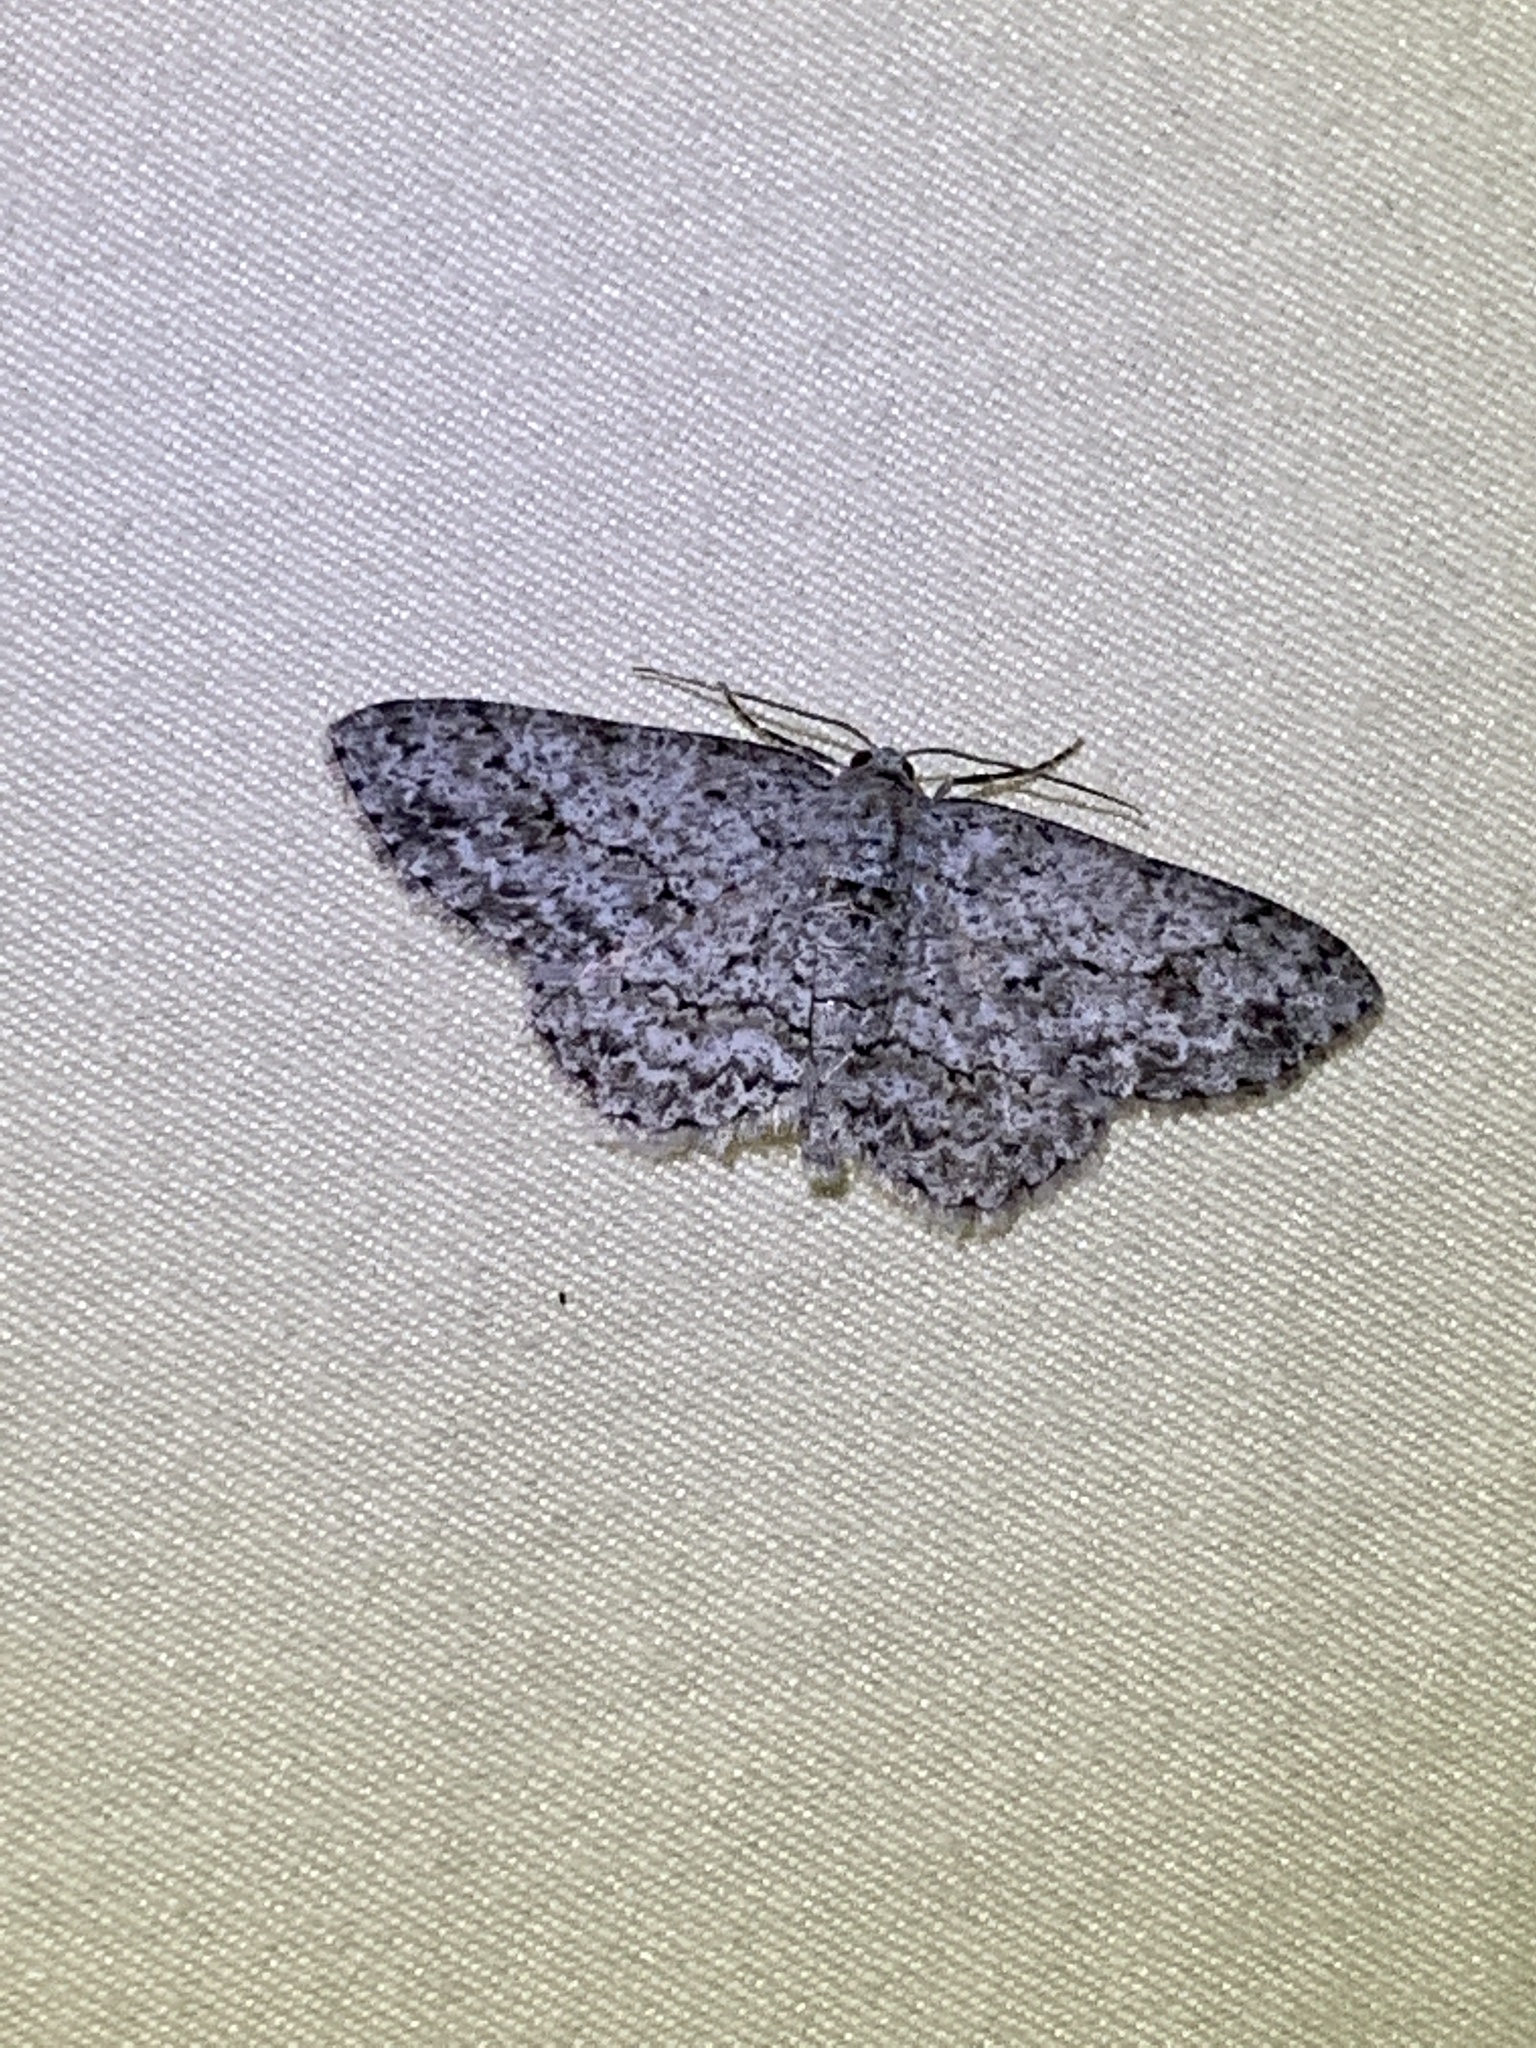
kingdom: Animalia
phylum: Arthropoda
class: Insecta
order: Lepidoptera
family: Geometridae
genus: Ectropis
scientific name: Ectropis crepuscularia
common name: Engrailed
